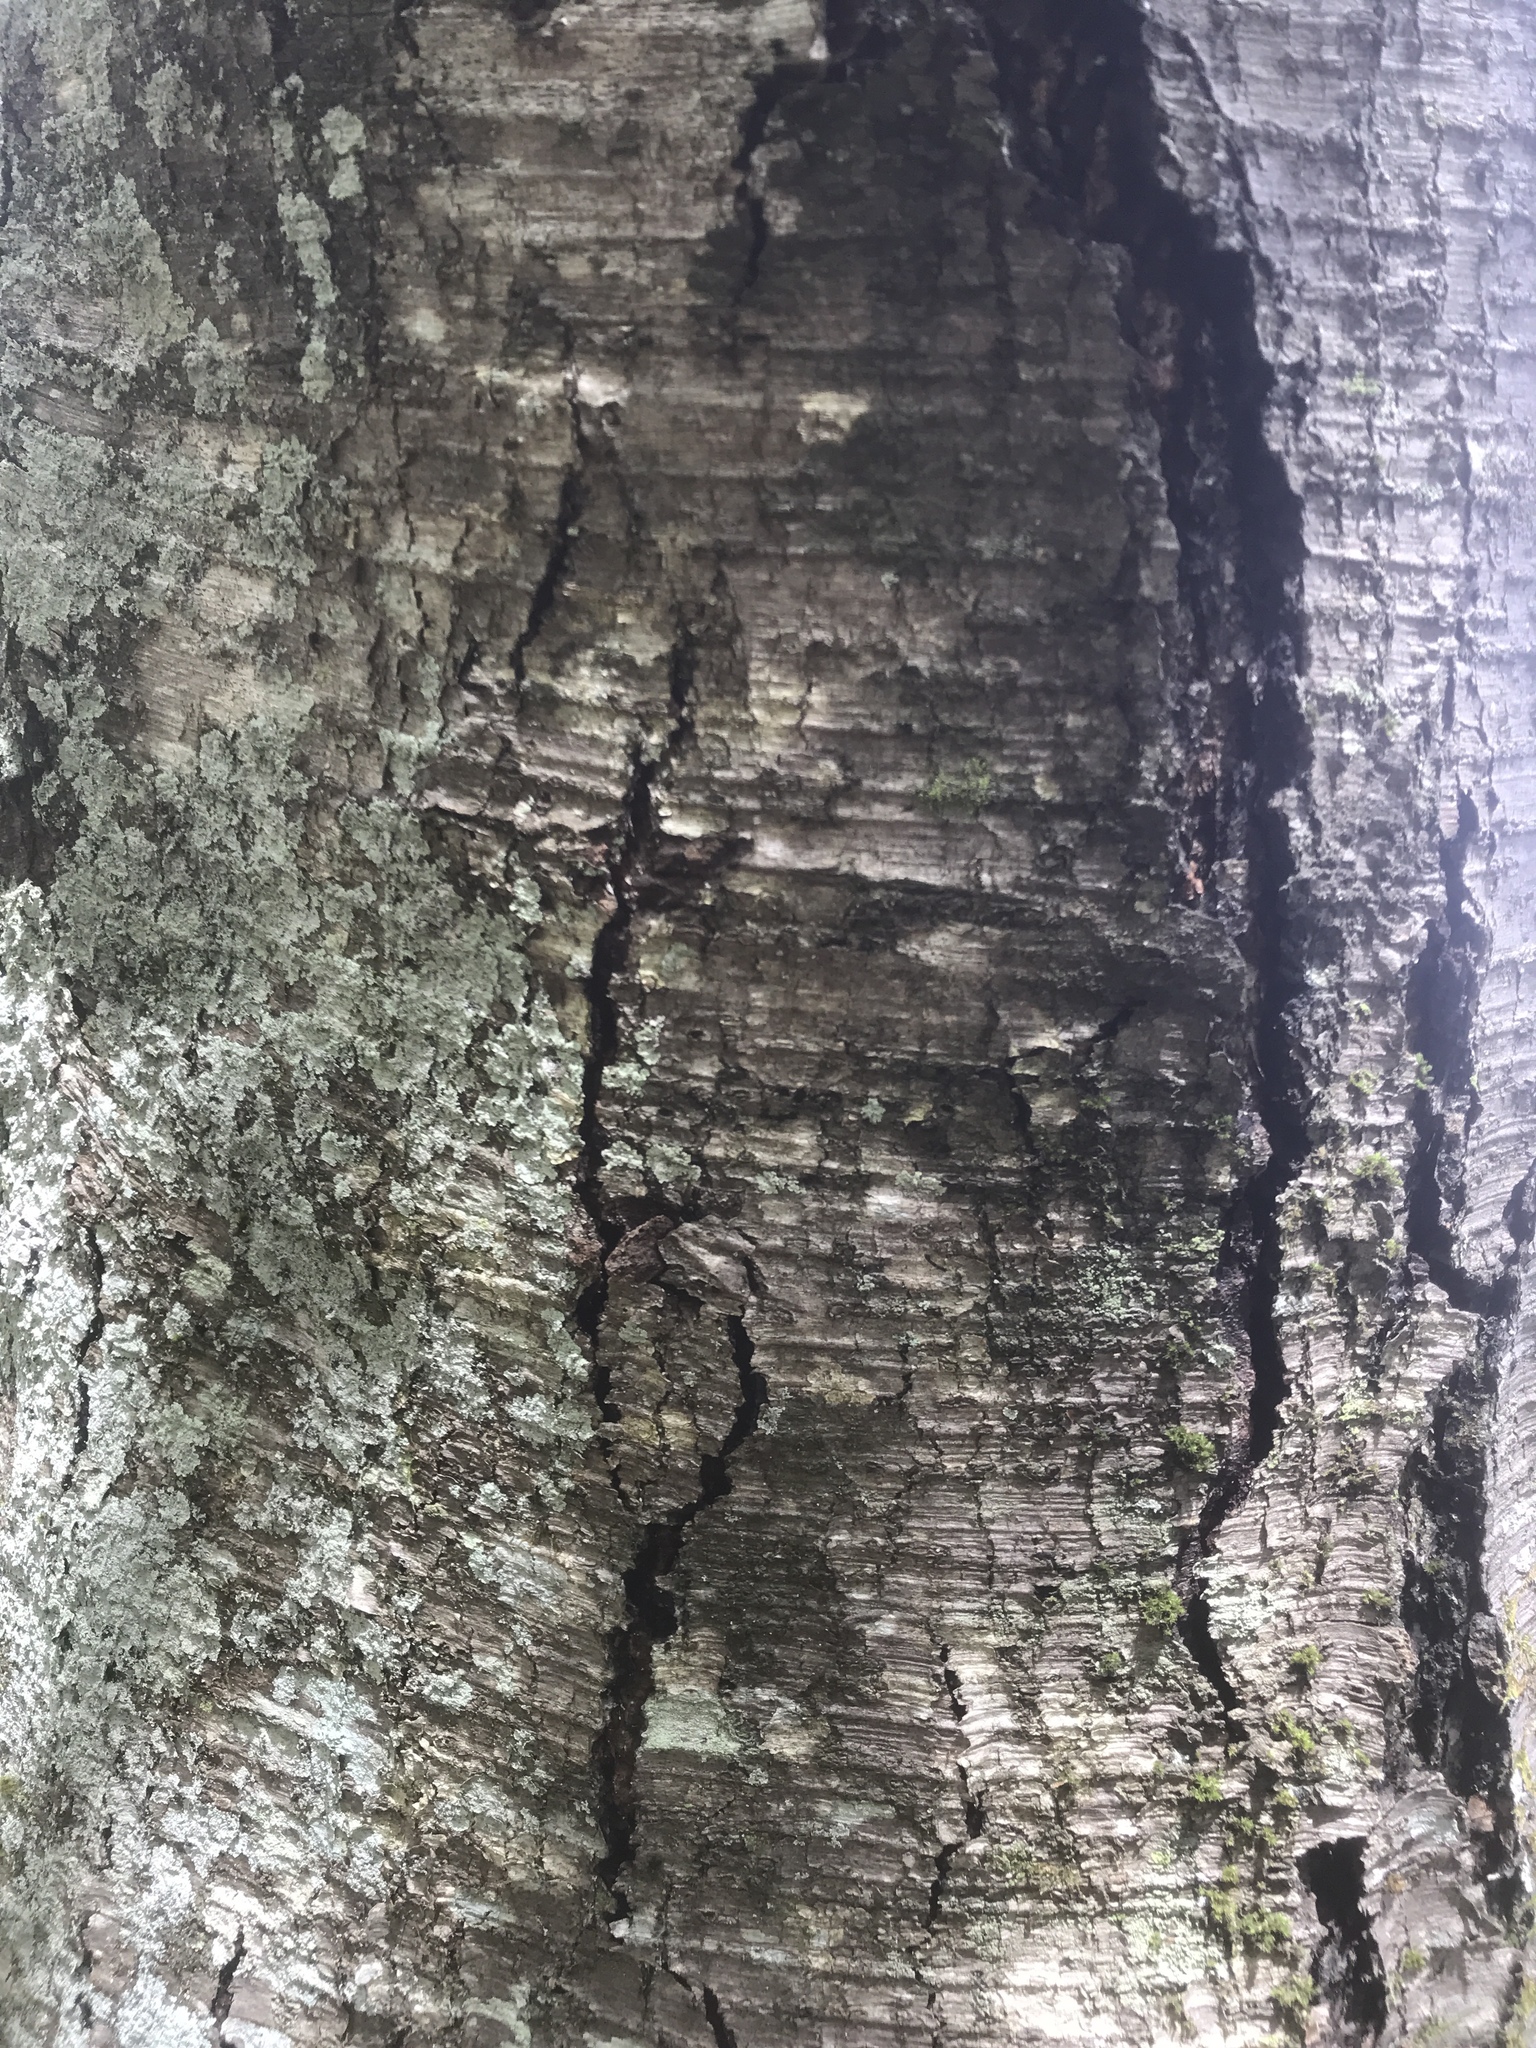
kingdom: Plantae
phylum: Tracheophyta
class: Magnoliopsida
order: Fagales
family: Betulaceae
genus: Betula
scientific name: Betula lenta
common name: Black birch
